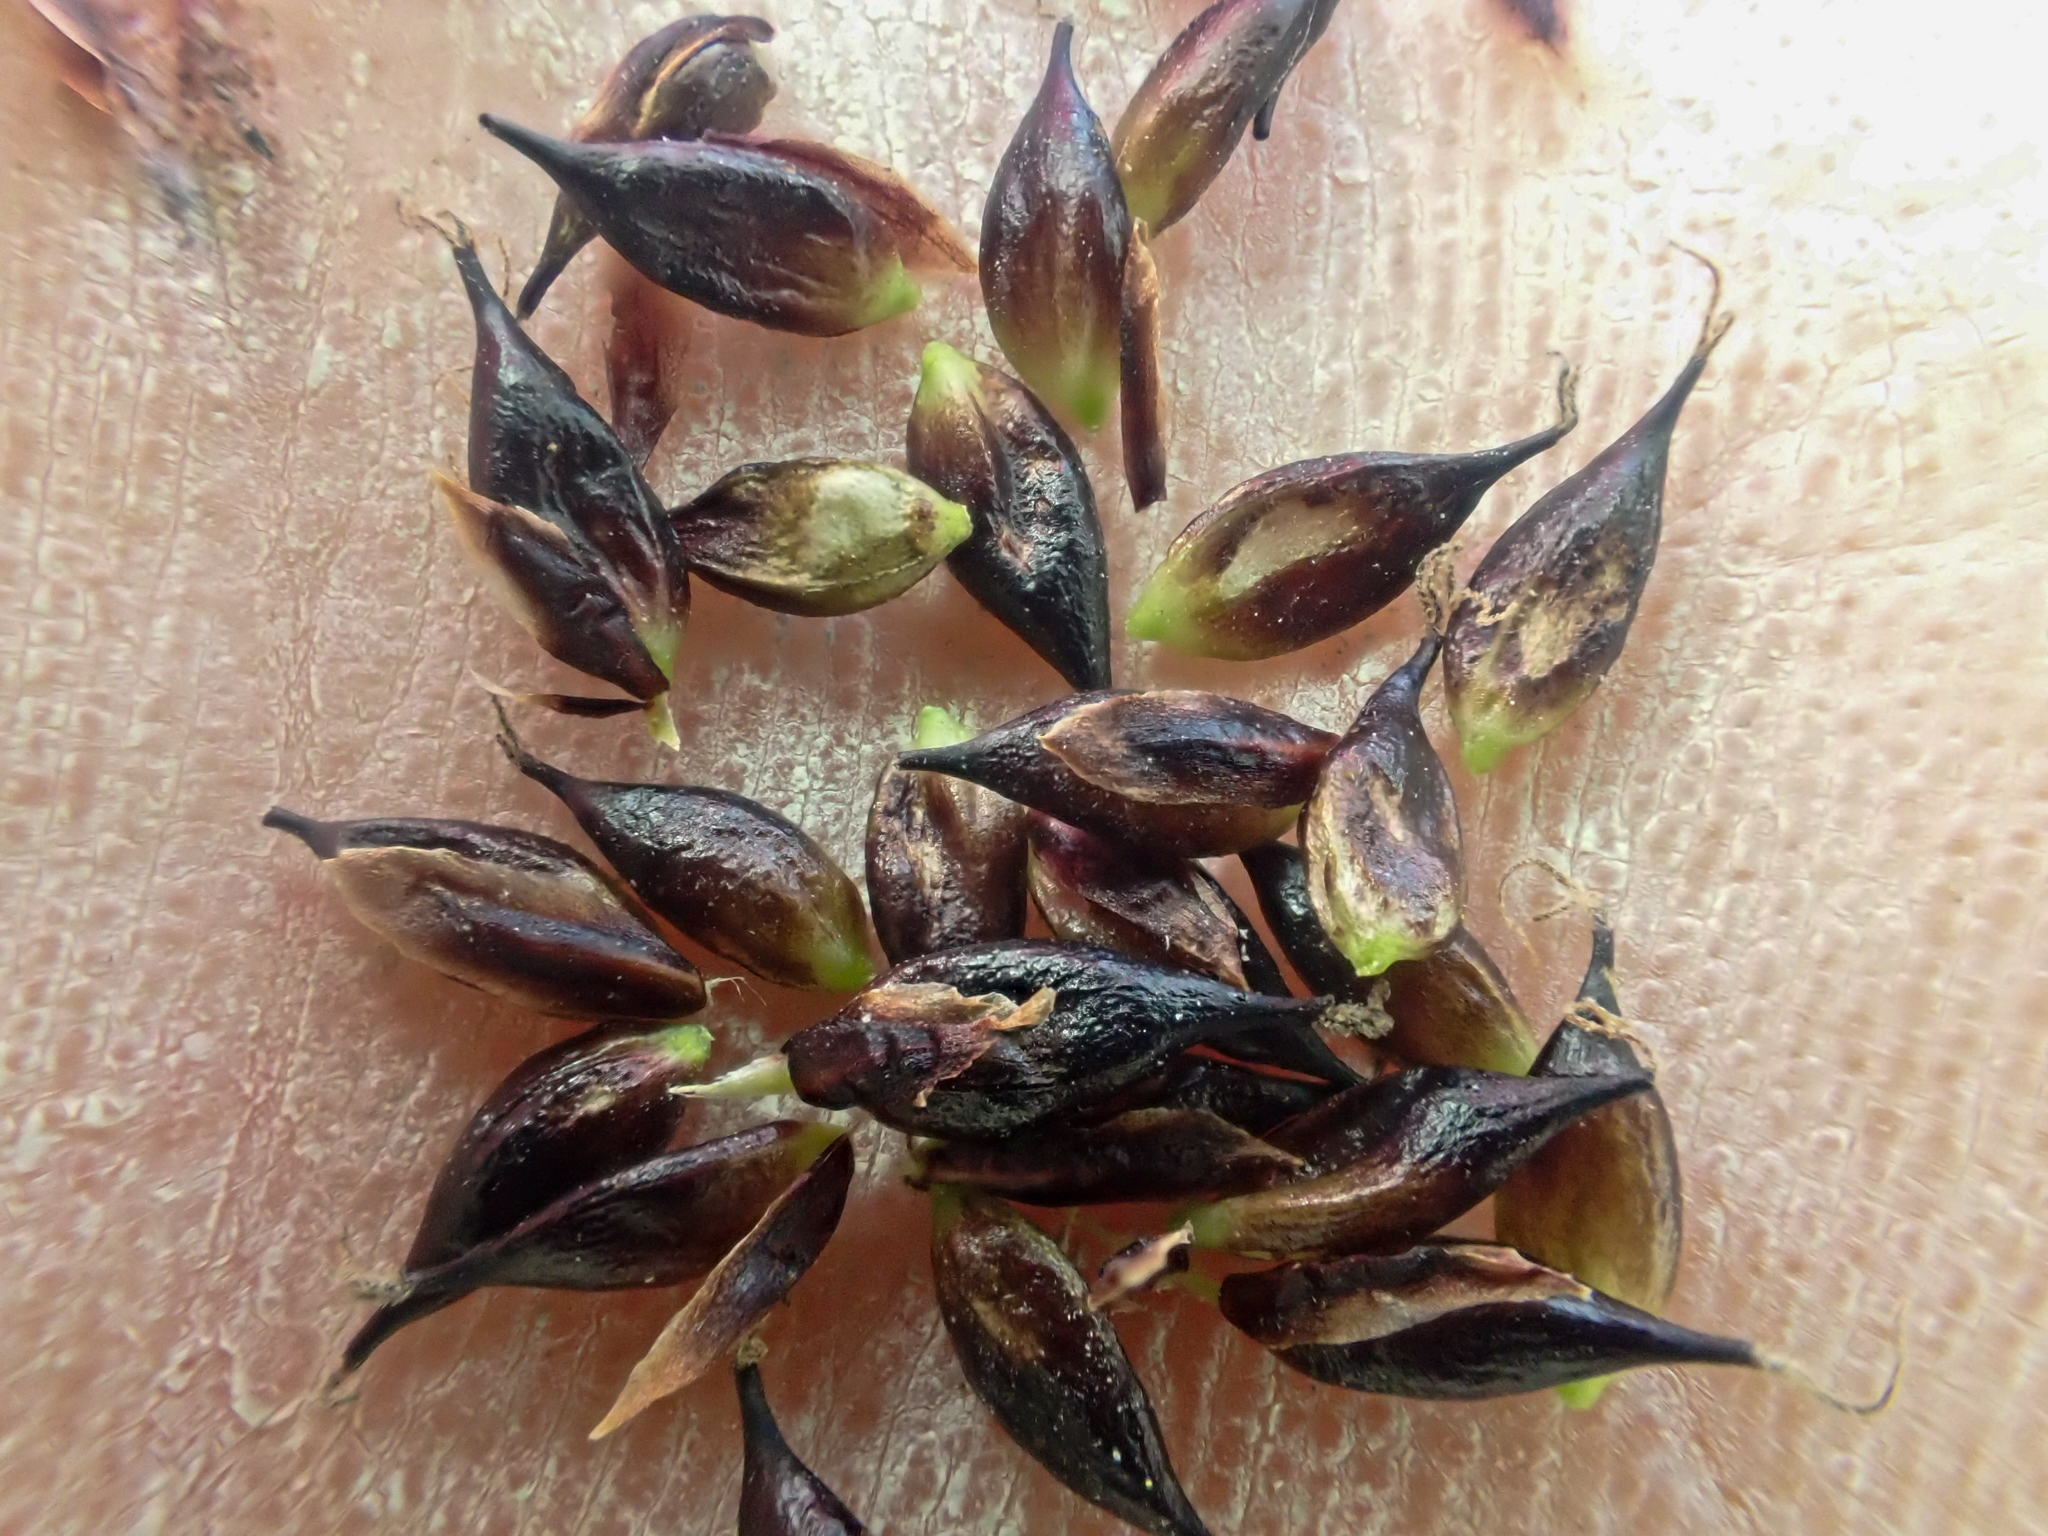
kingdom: Plantae
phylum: Tracheophyta
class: Liliopsida
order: Poales
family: Cyperaceae
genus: Carex
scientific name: Carex saxatilis
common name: Russet sedge
